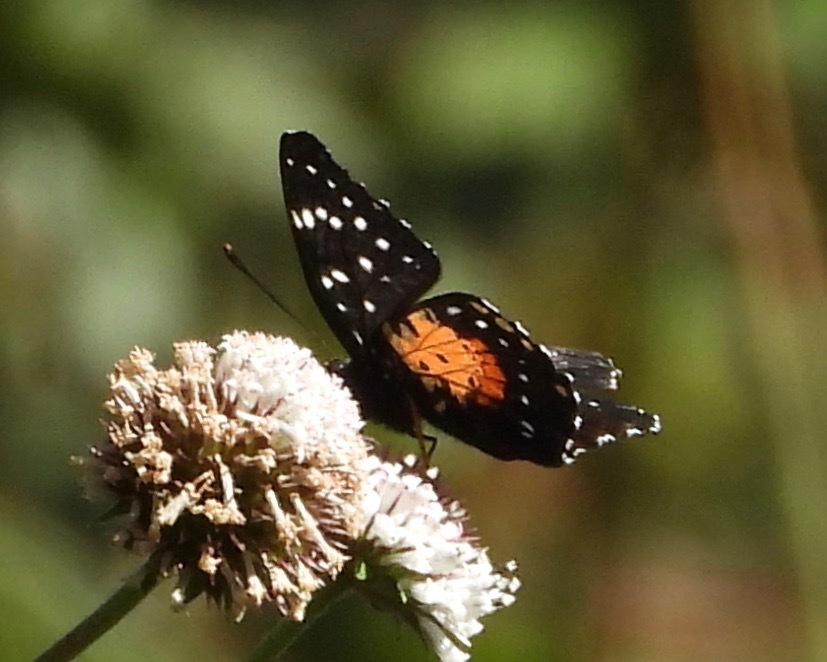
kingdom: Animalia
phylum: Arthropoda
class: Insecta
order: Lepidoptera
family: Nymphalidae
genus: Chlosyne
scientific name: Chlosyne janais
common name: Crimson patch
